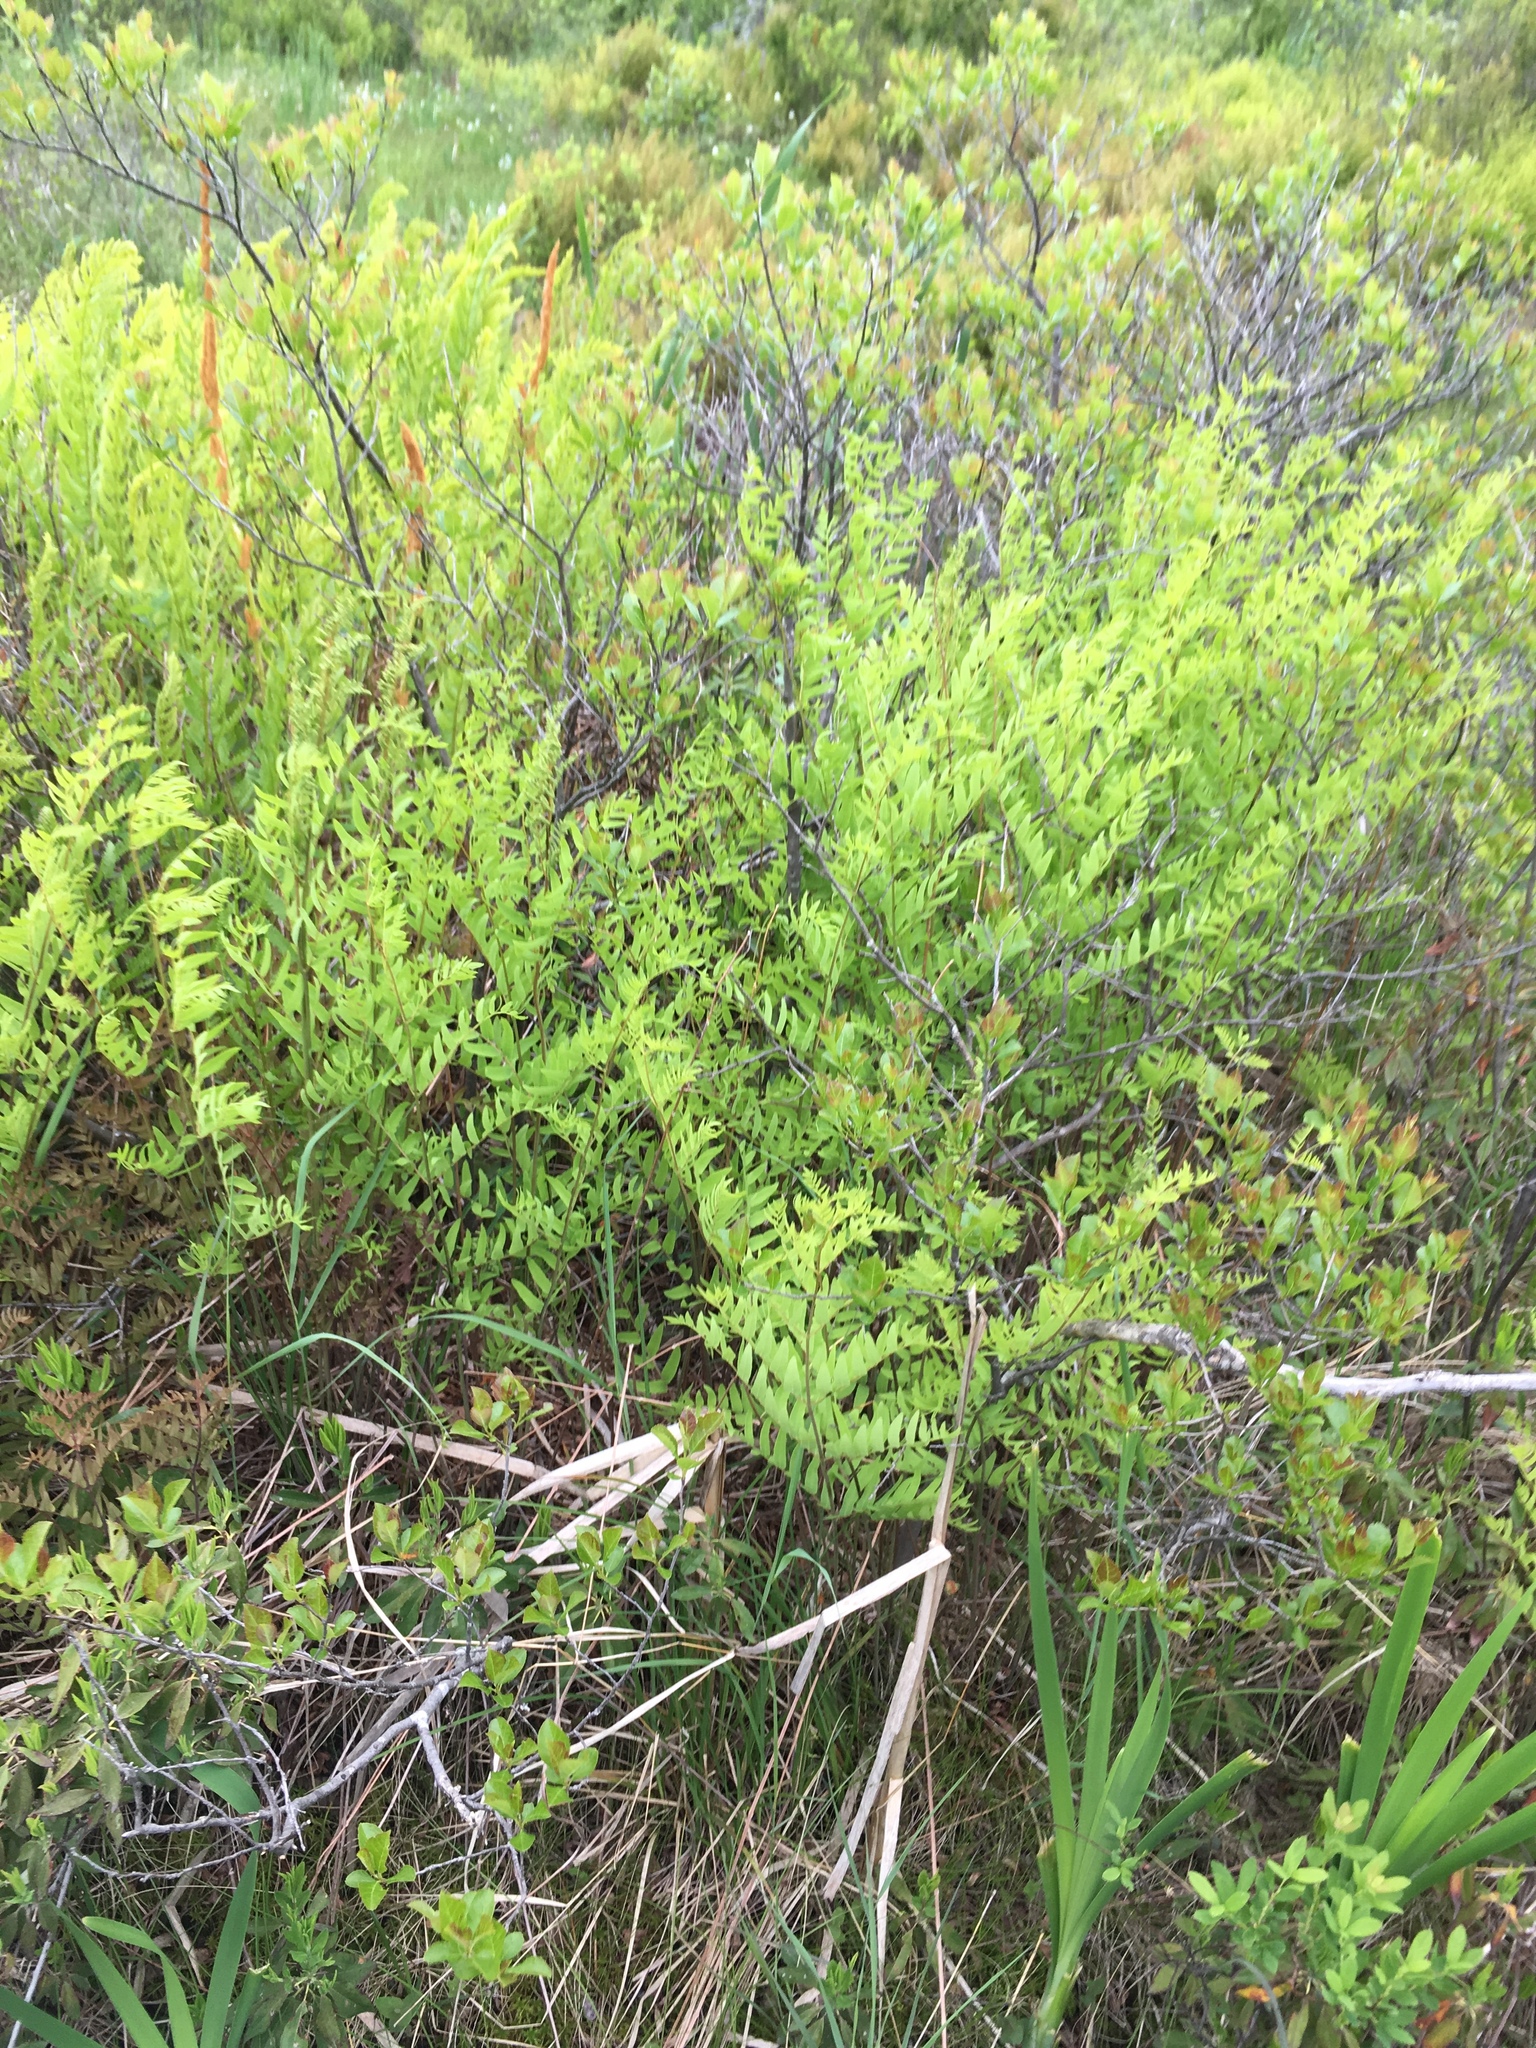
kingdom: Plantae
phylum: Tracheophyta
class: Polypodiopsida
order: Osmundales
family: Osmundaceae
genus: Osmunda
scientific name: Osmunda spectabilis
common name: American royal fern
